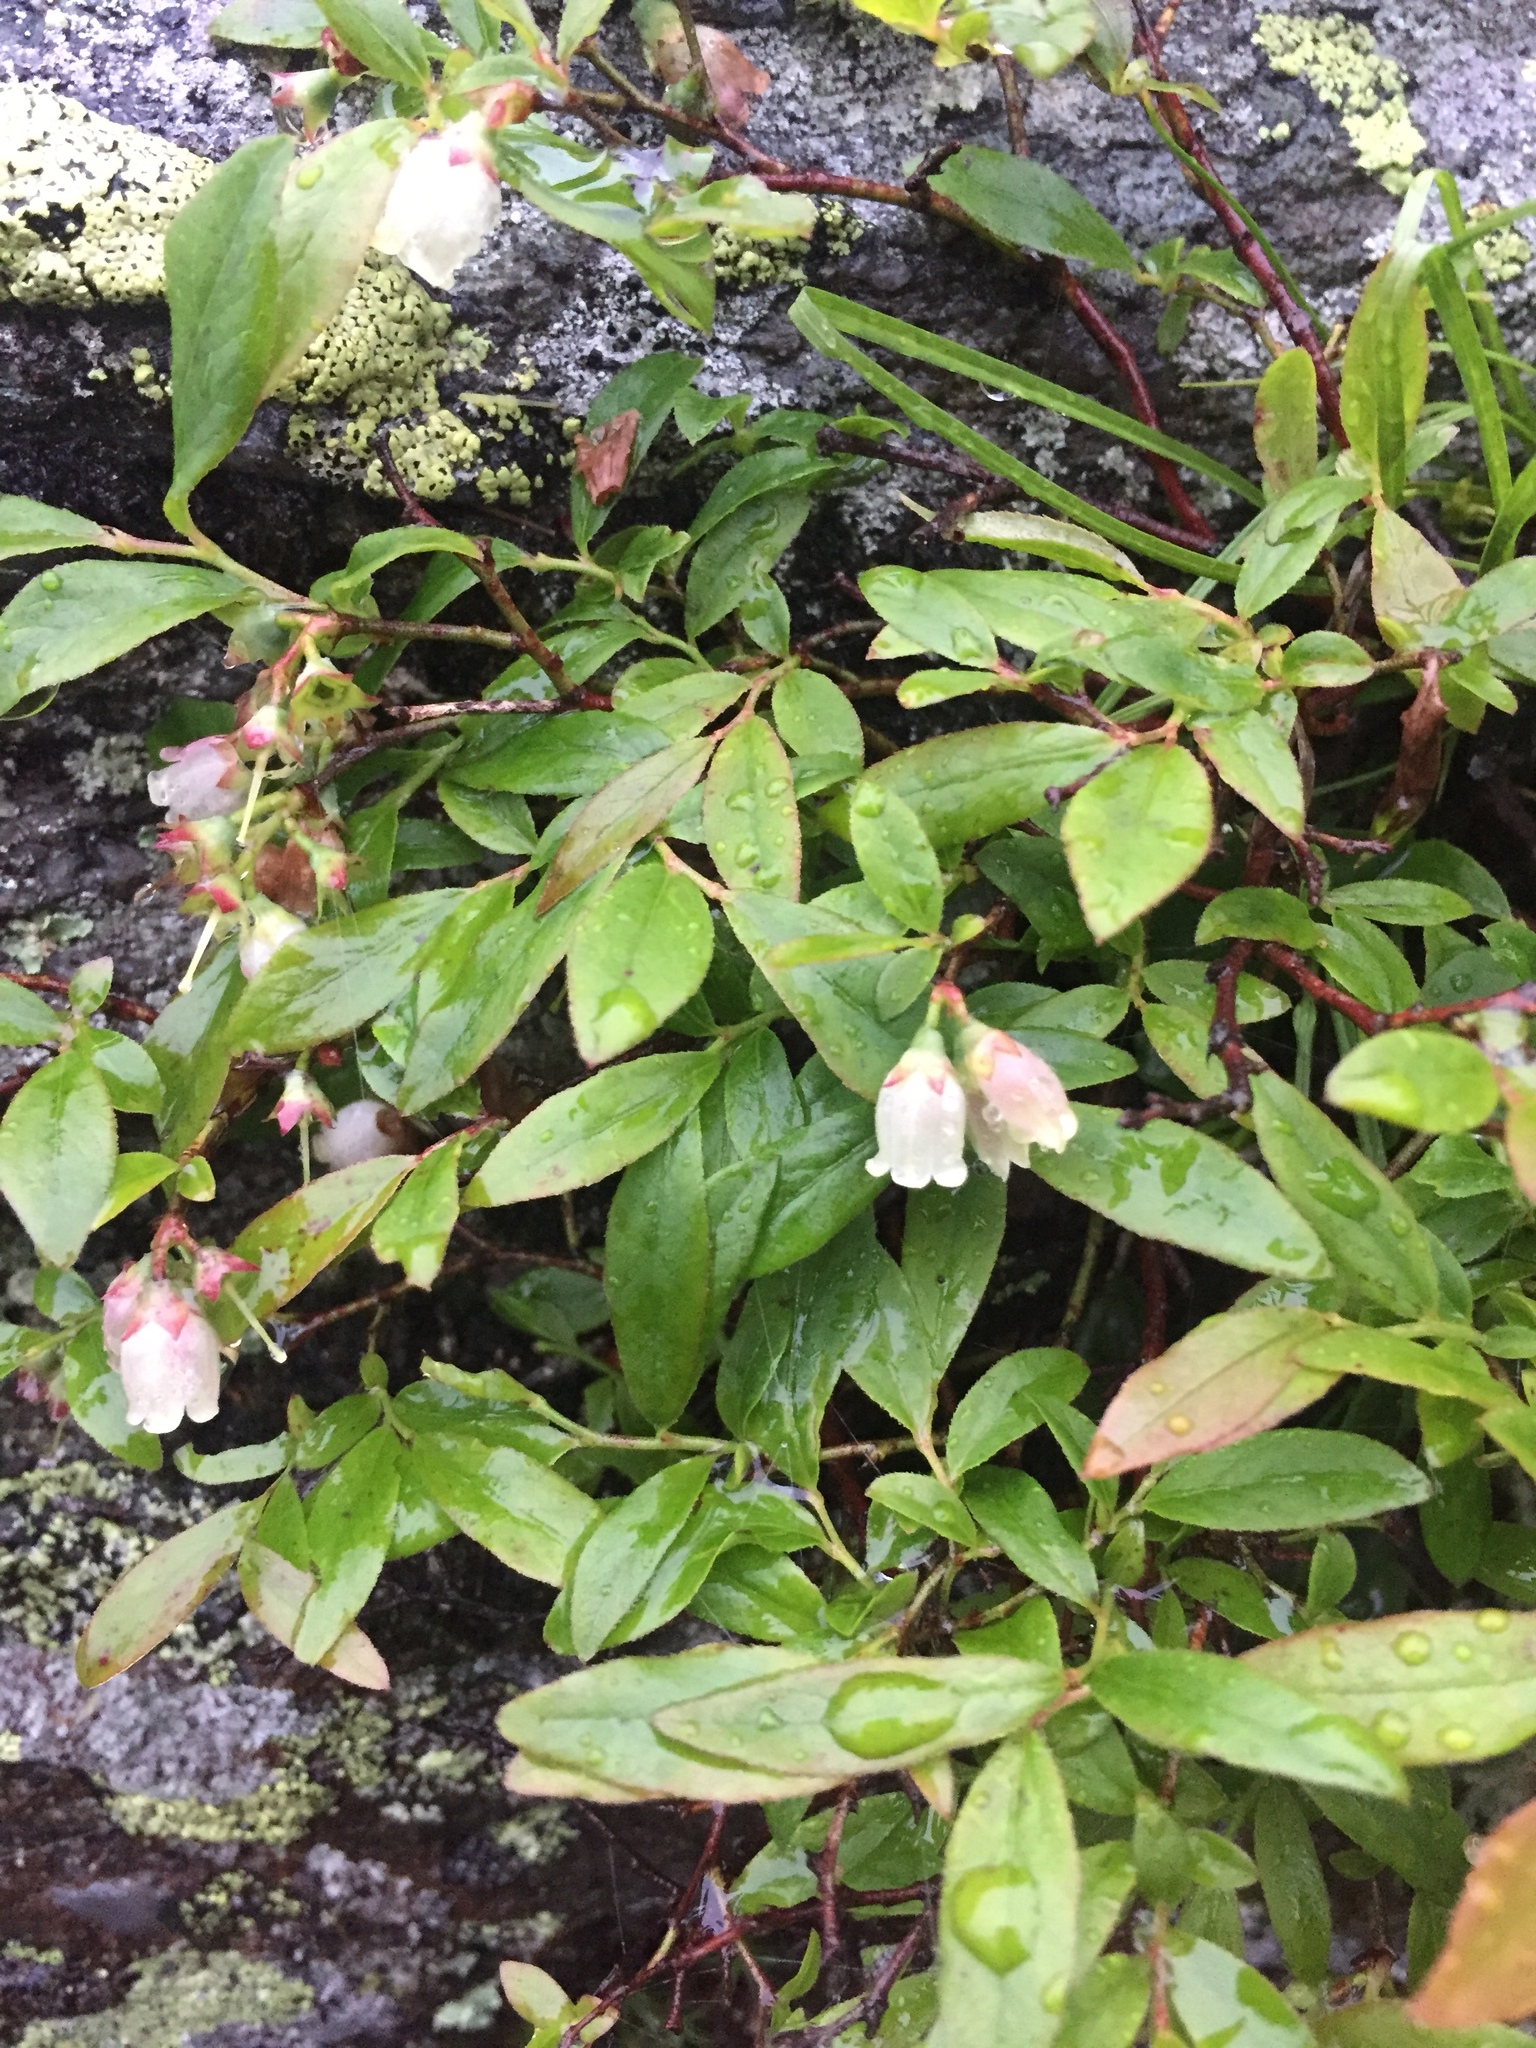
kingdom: Plantae
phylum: Tracheophyta
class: Magnoliopsida
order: Ericales
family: Ericaceae
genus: Vaccinium
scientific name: Vaccinium angustifolium
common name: Early lowbush blueberry
